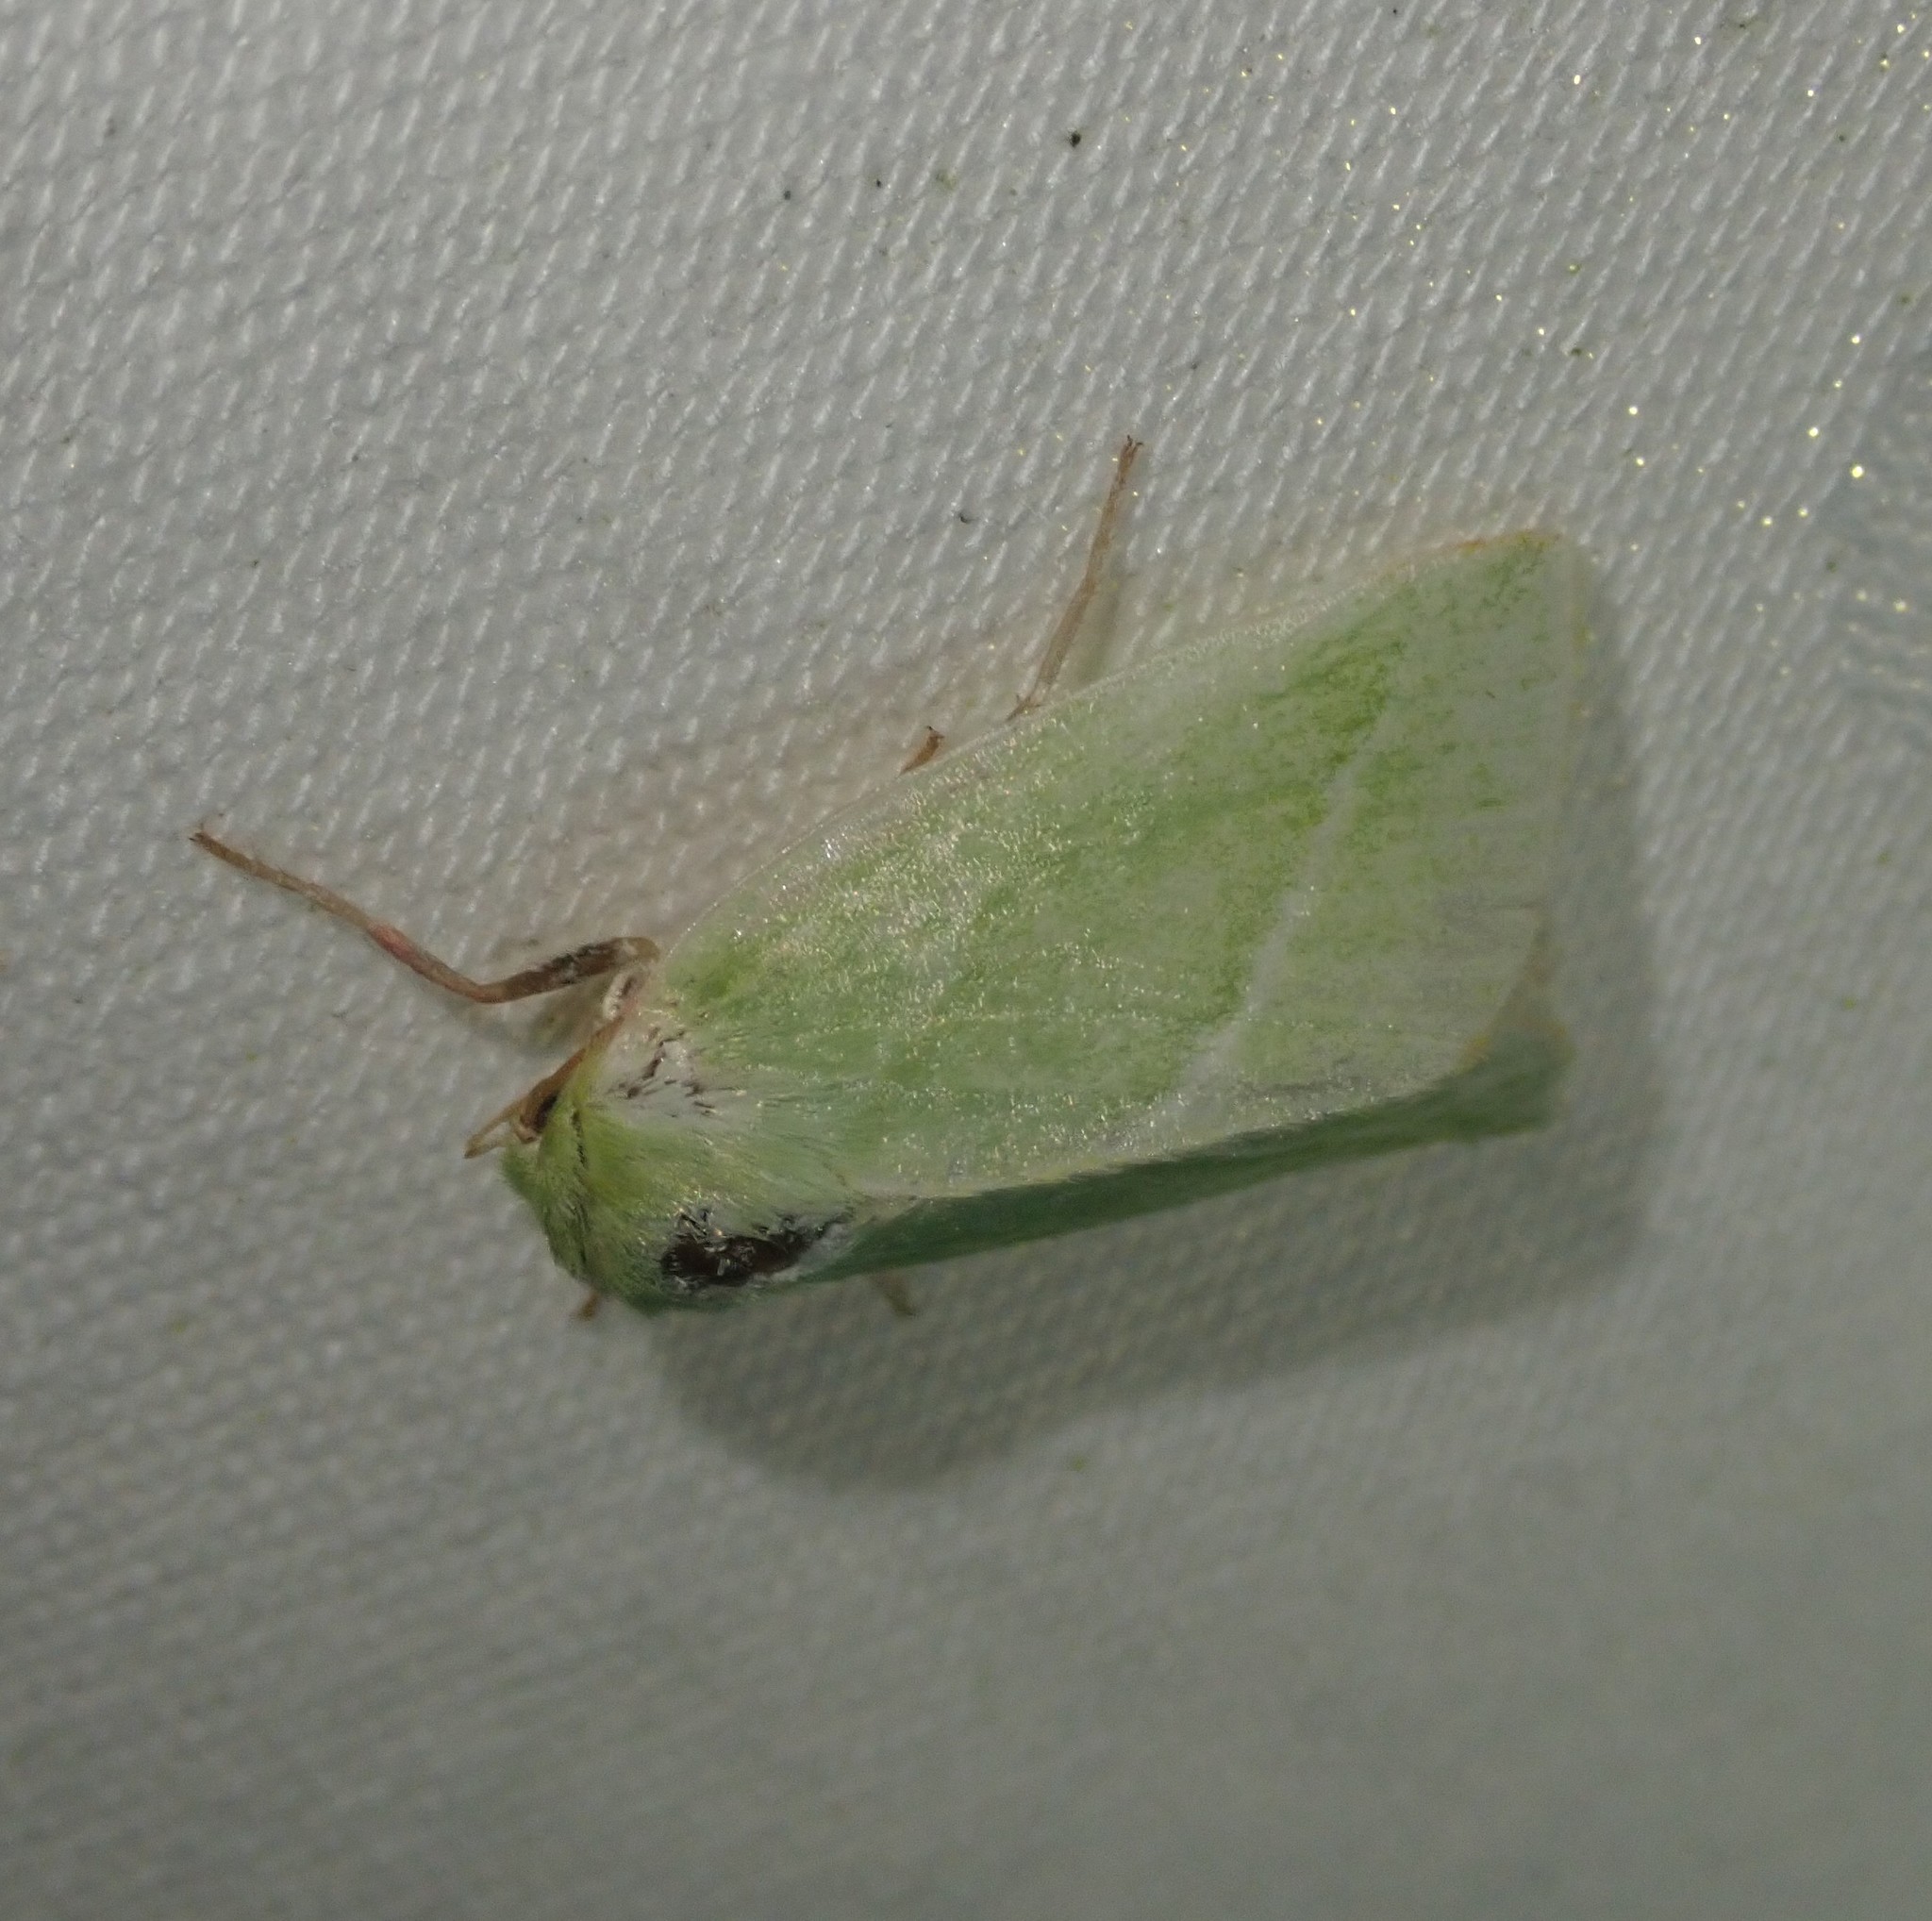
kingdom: Animalia
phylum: Arthropoda
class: Insecta
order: Lepidoptera
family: Nolidae
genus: Pseudoips
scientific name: Pseudoips prasinana
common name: Green silver-lines
